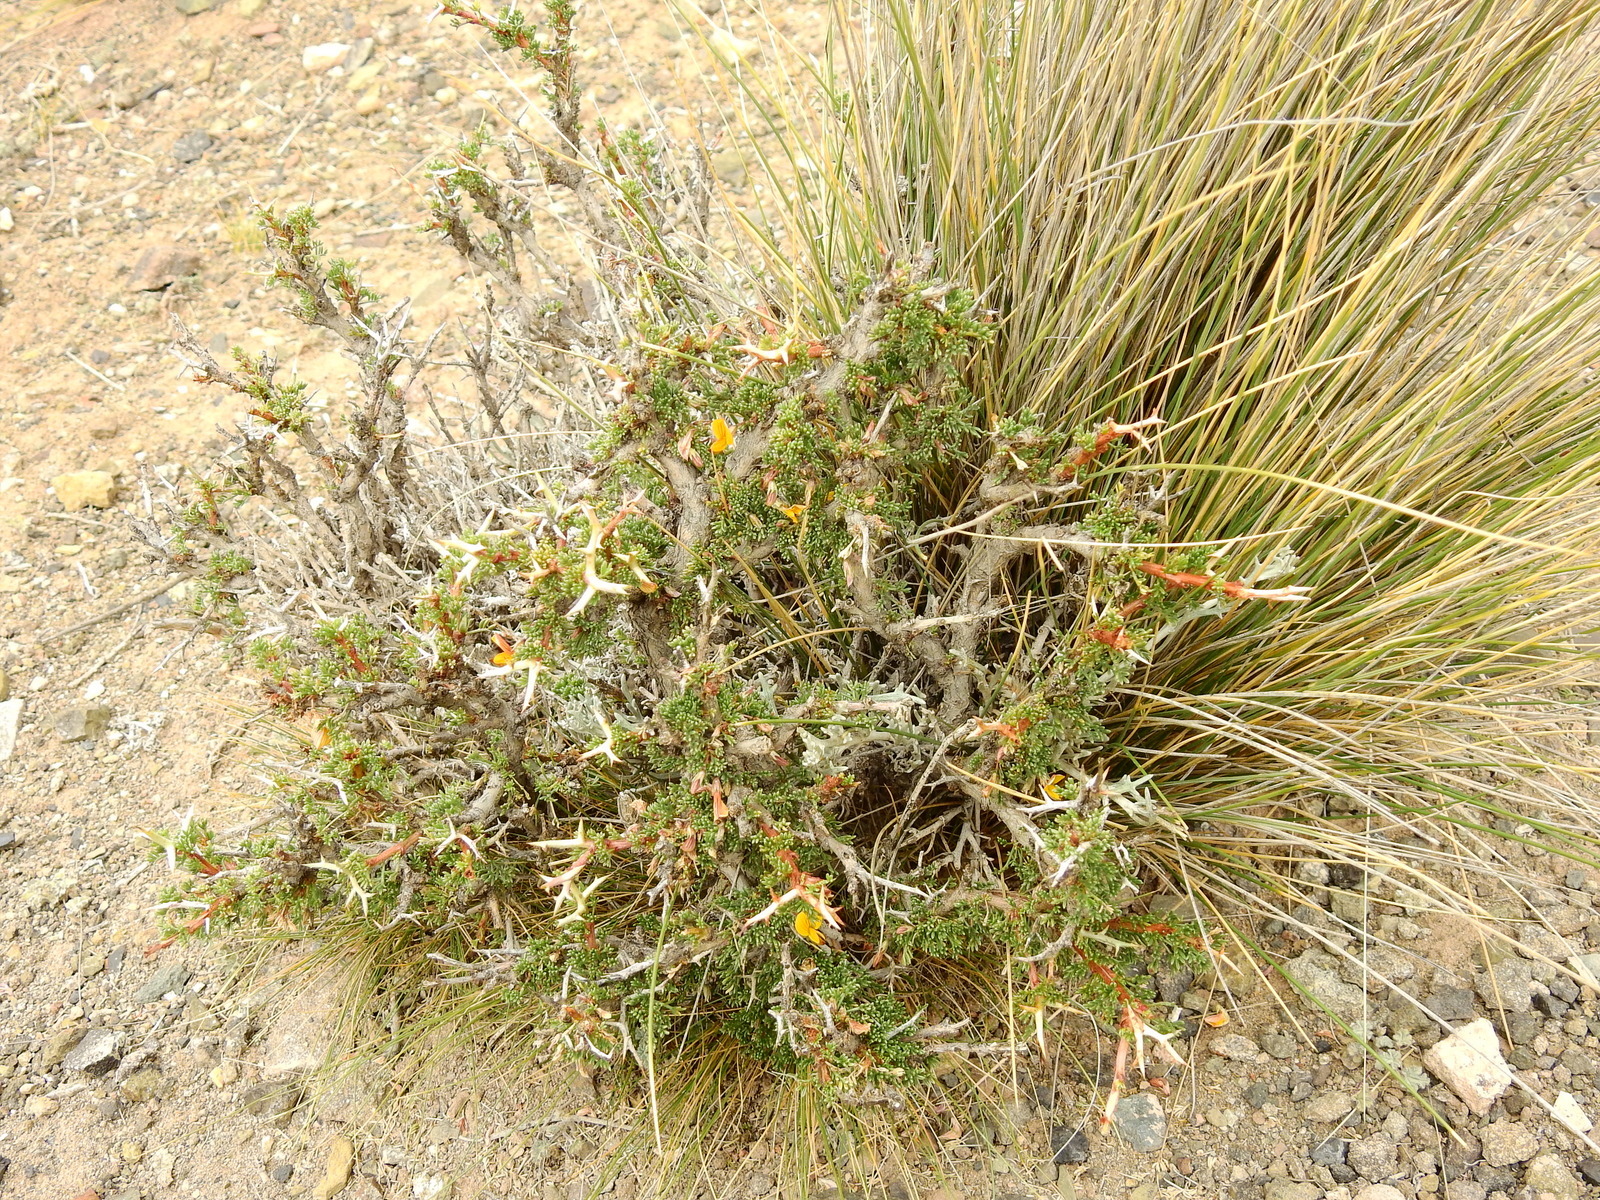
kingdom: Plantae
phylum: Tracheophyta
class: Magnoliopsida
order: Fabales
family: Fabaceae
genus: Adesmia
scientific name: Adesmia horrida
